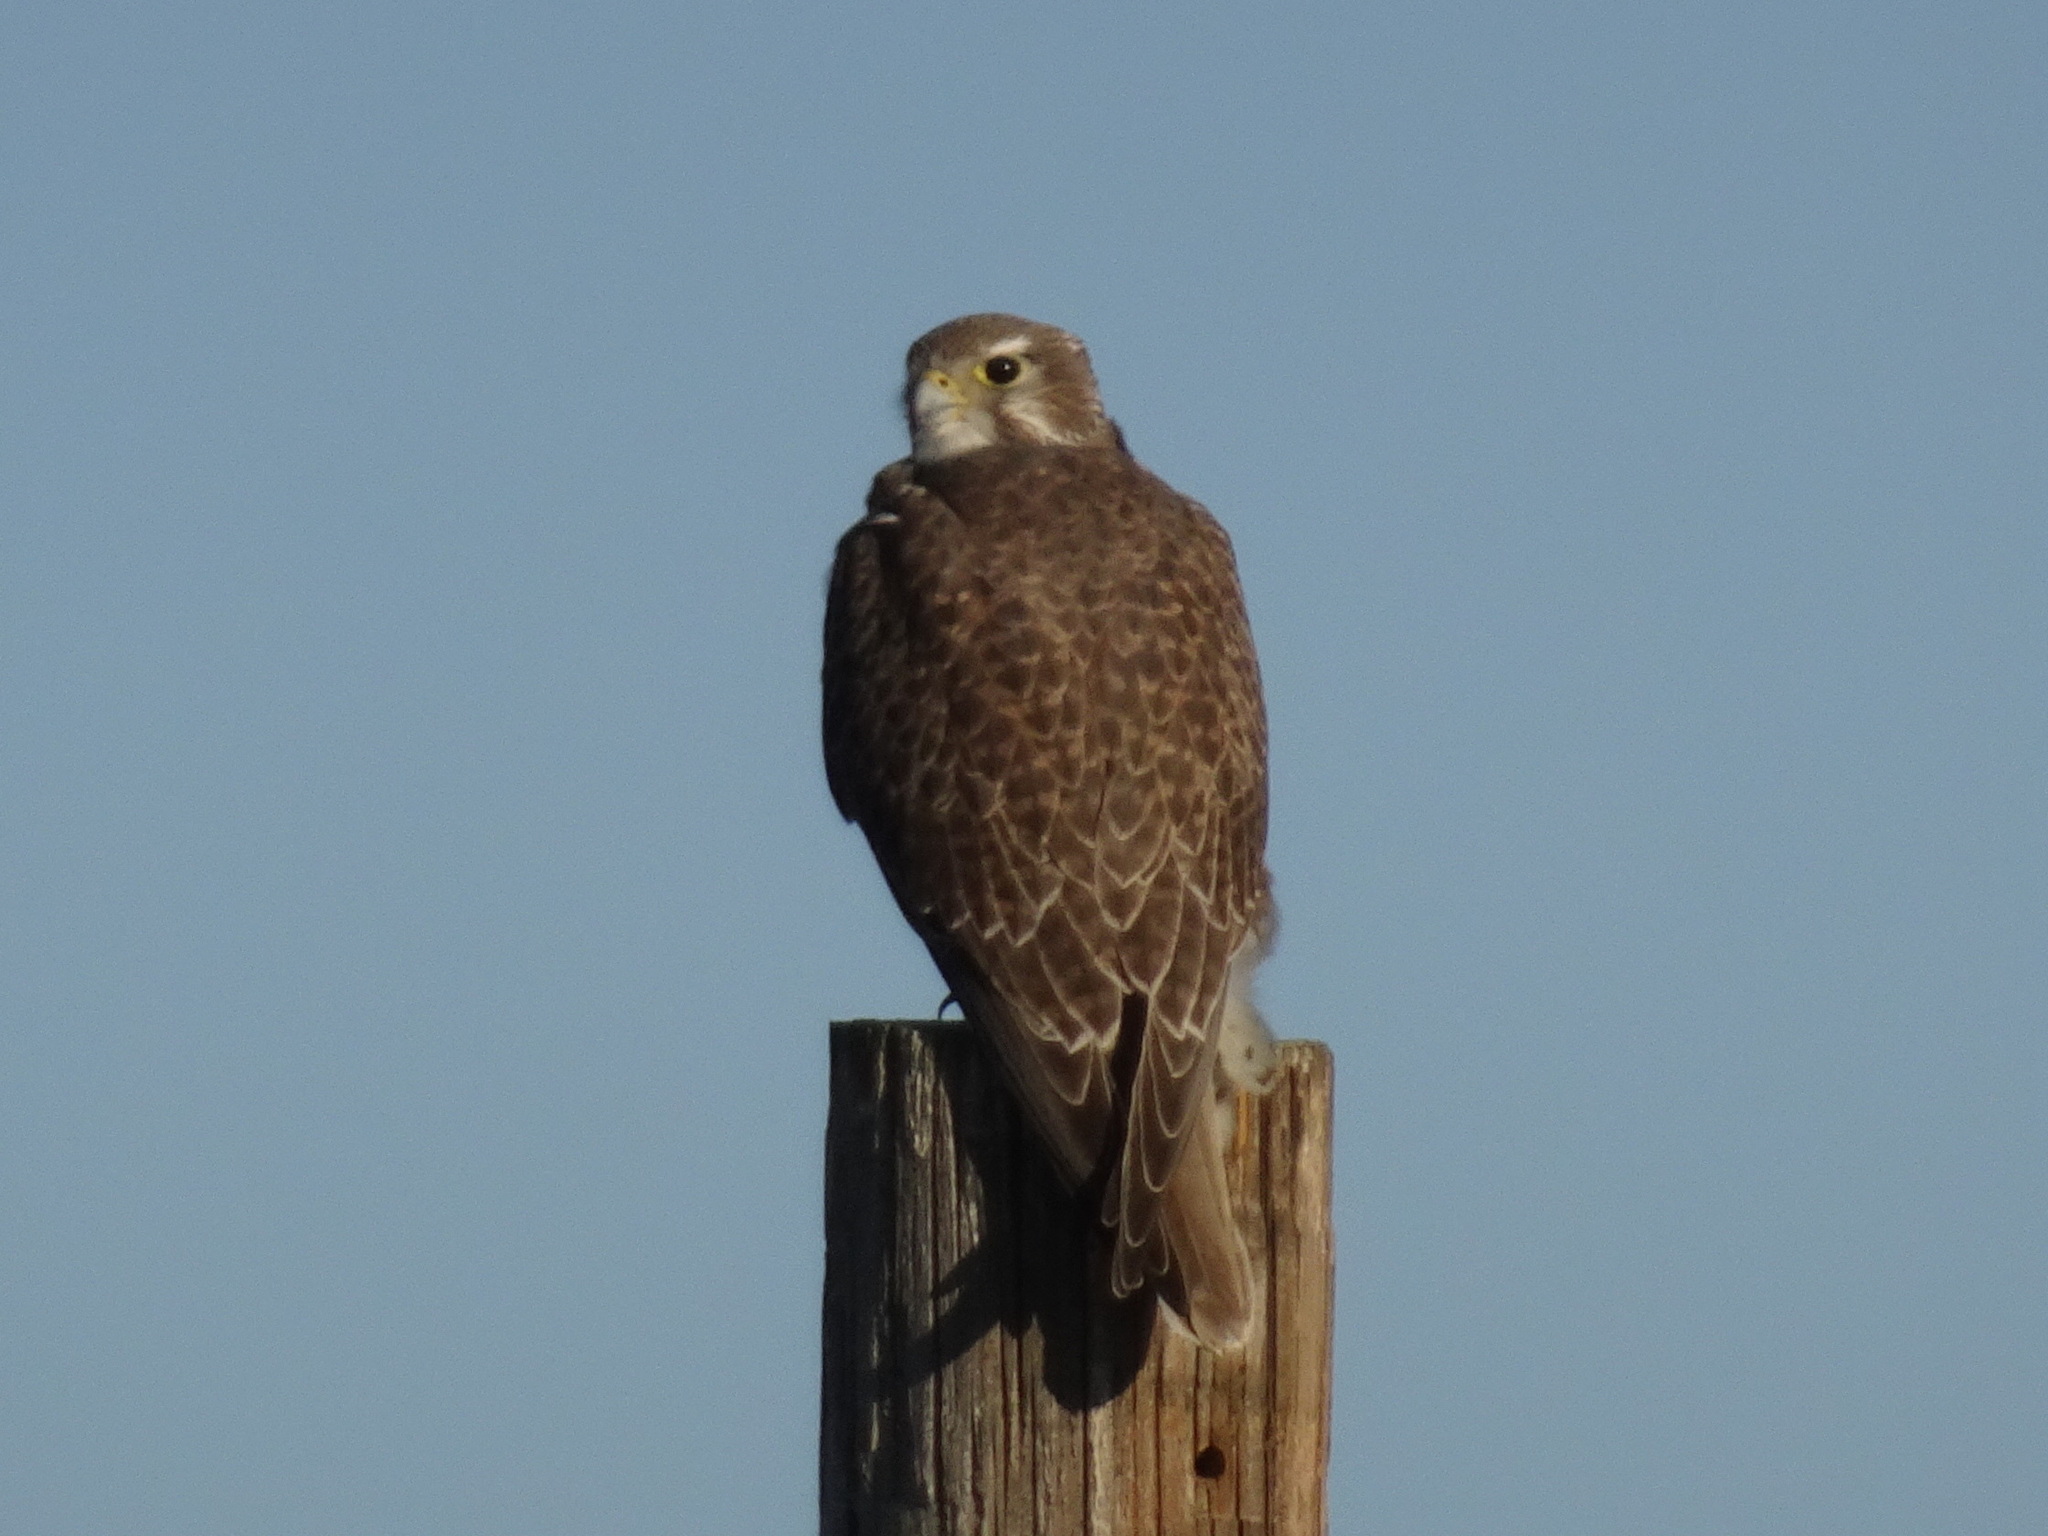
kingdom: Animalia
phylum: Chordata
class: Aves
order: Falconiformes
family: Falconidae
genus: Falco
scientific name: Falco mexicanus
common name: Prairie falcon
